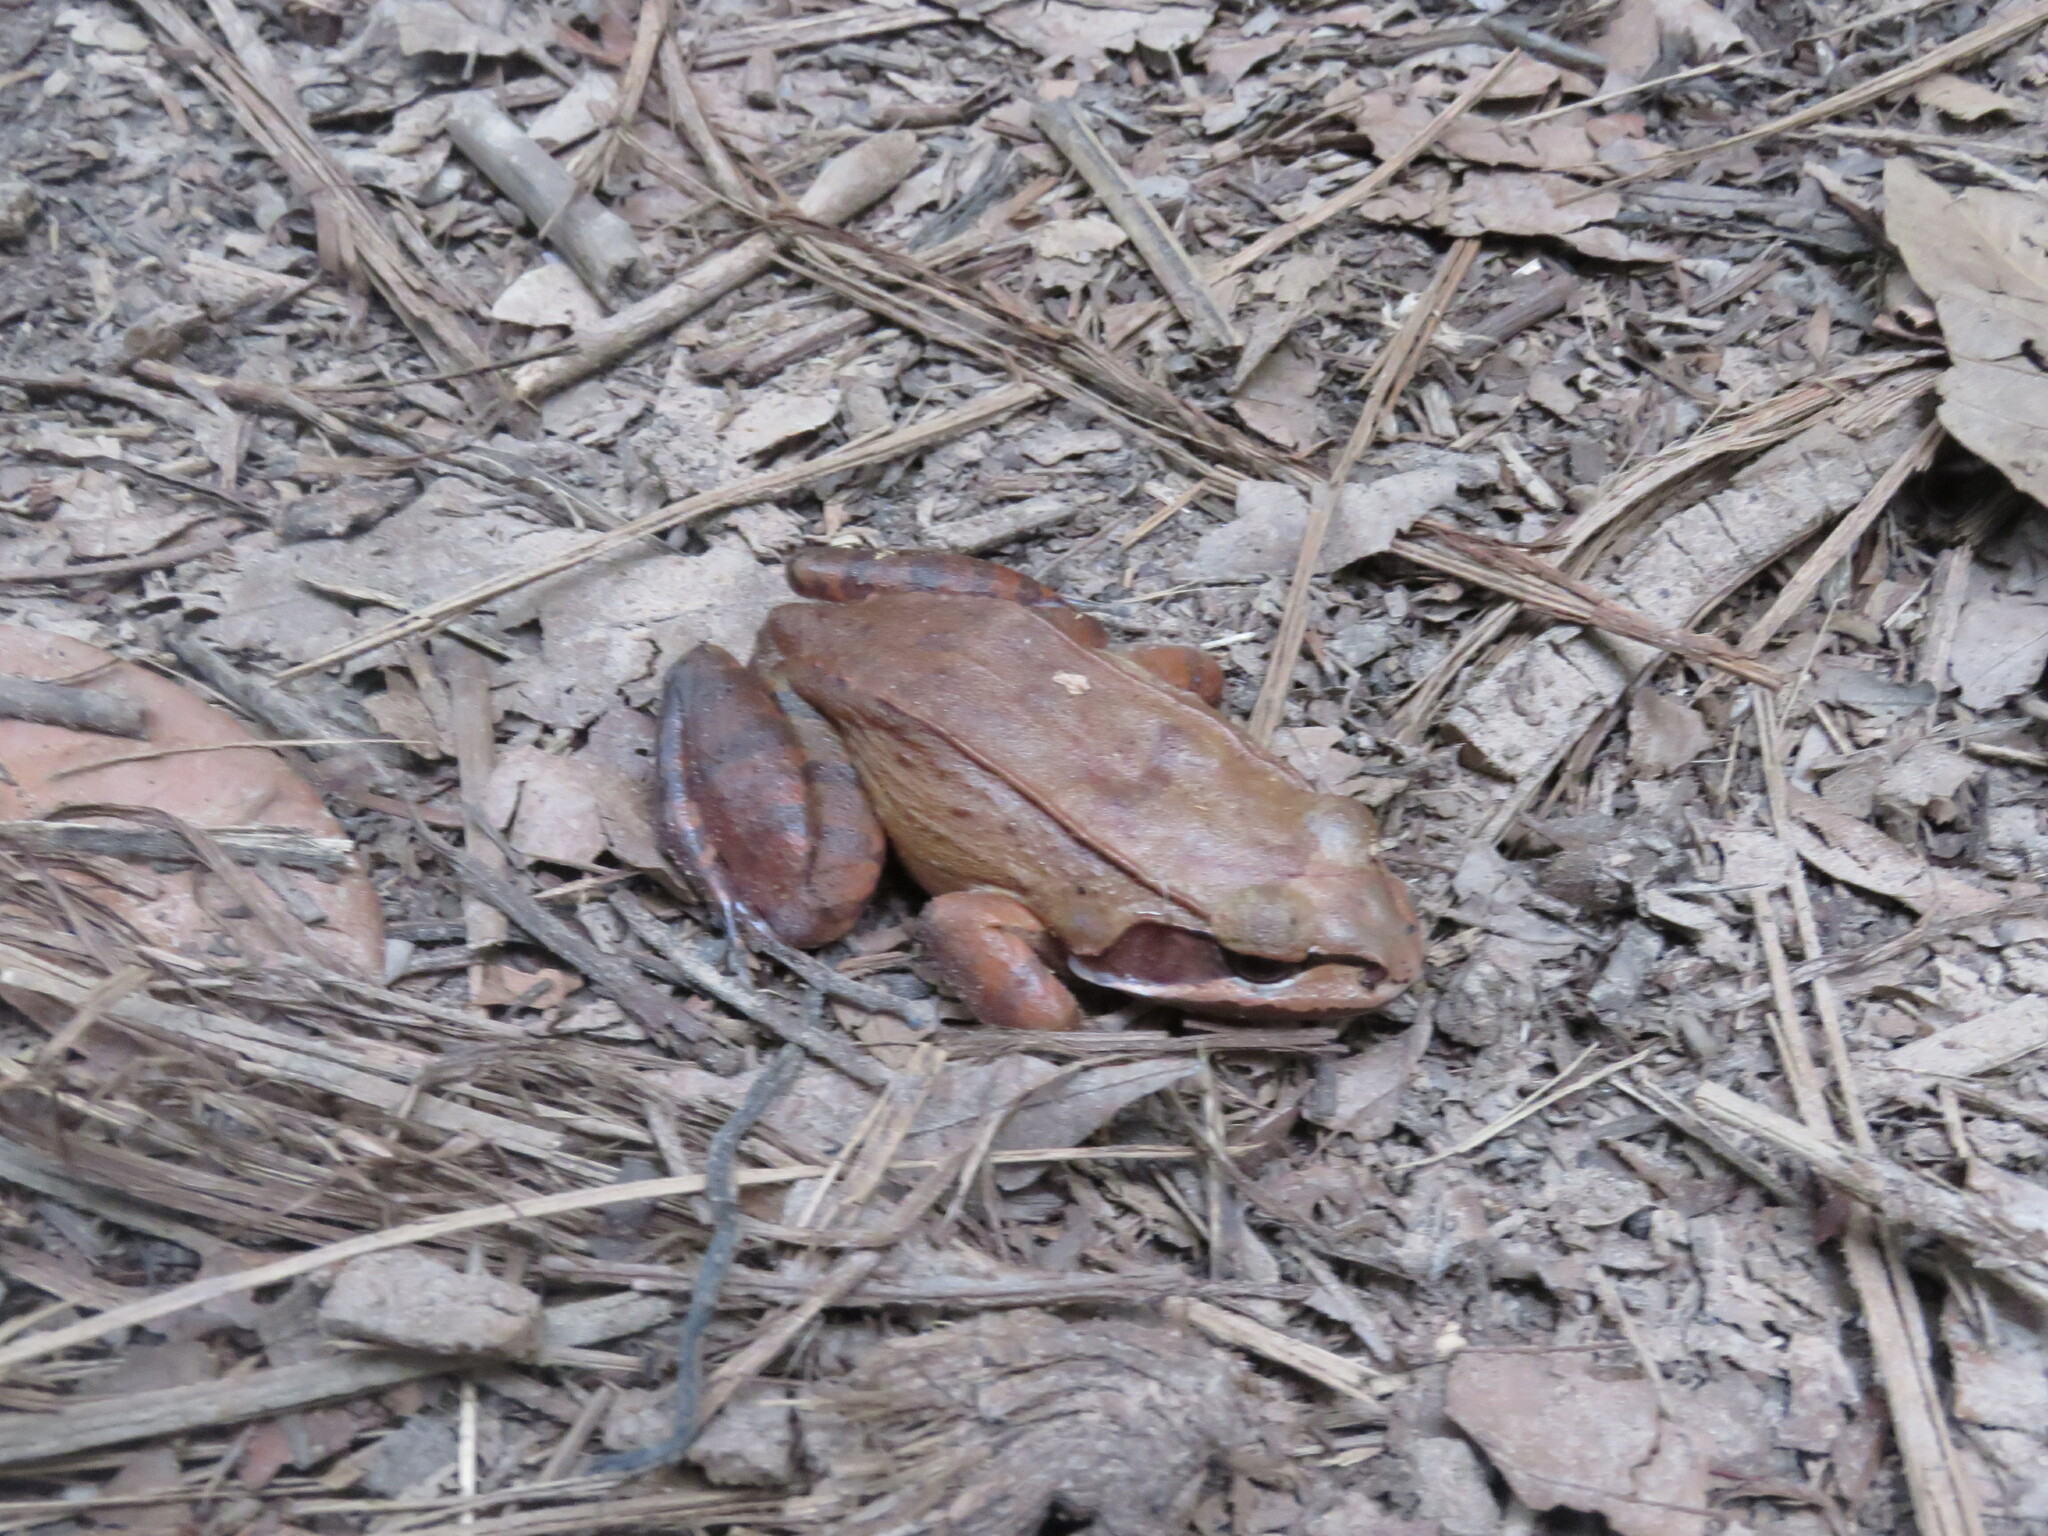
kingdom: Animalia
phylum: Chordata
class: Amphibia
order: Anura
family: Leptodactylidae
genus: Leptodactylus
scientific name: Leptodactylus rhodomystax
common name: Loreto white-lipped frog
